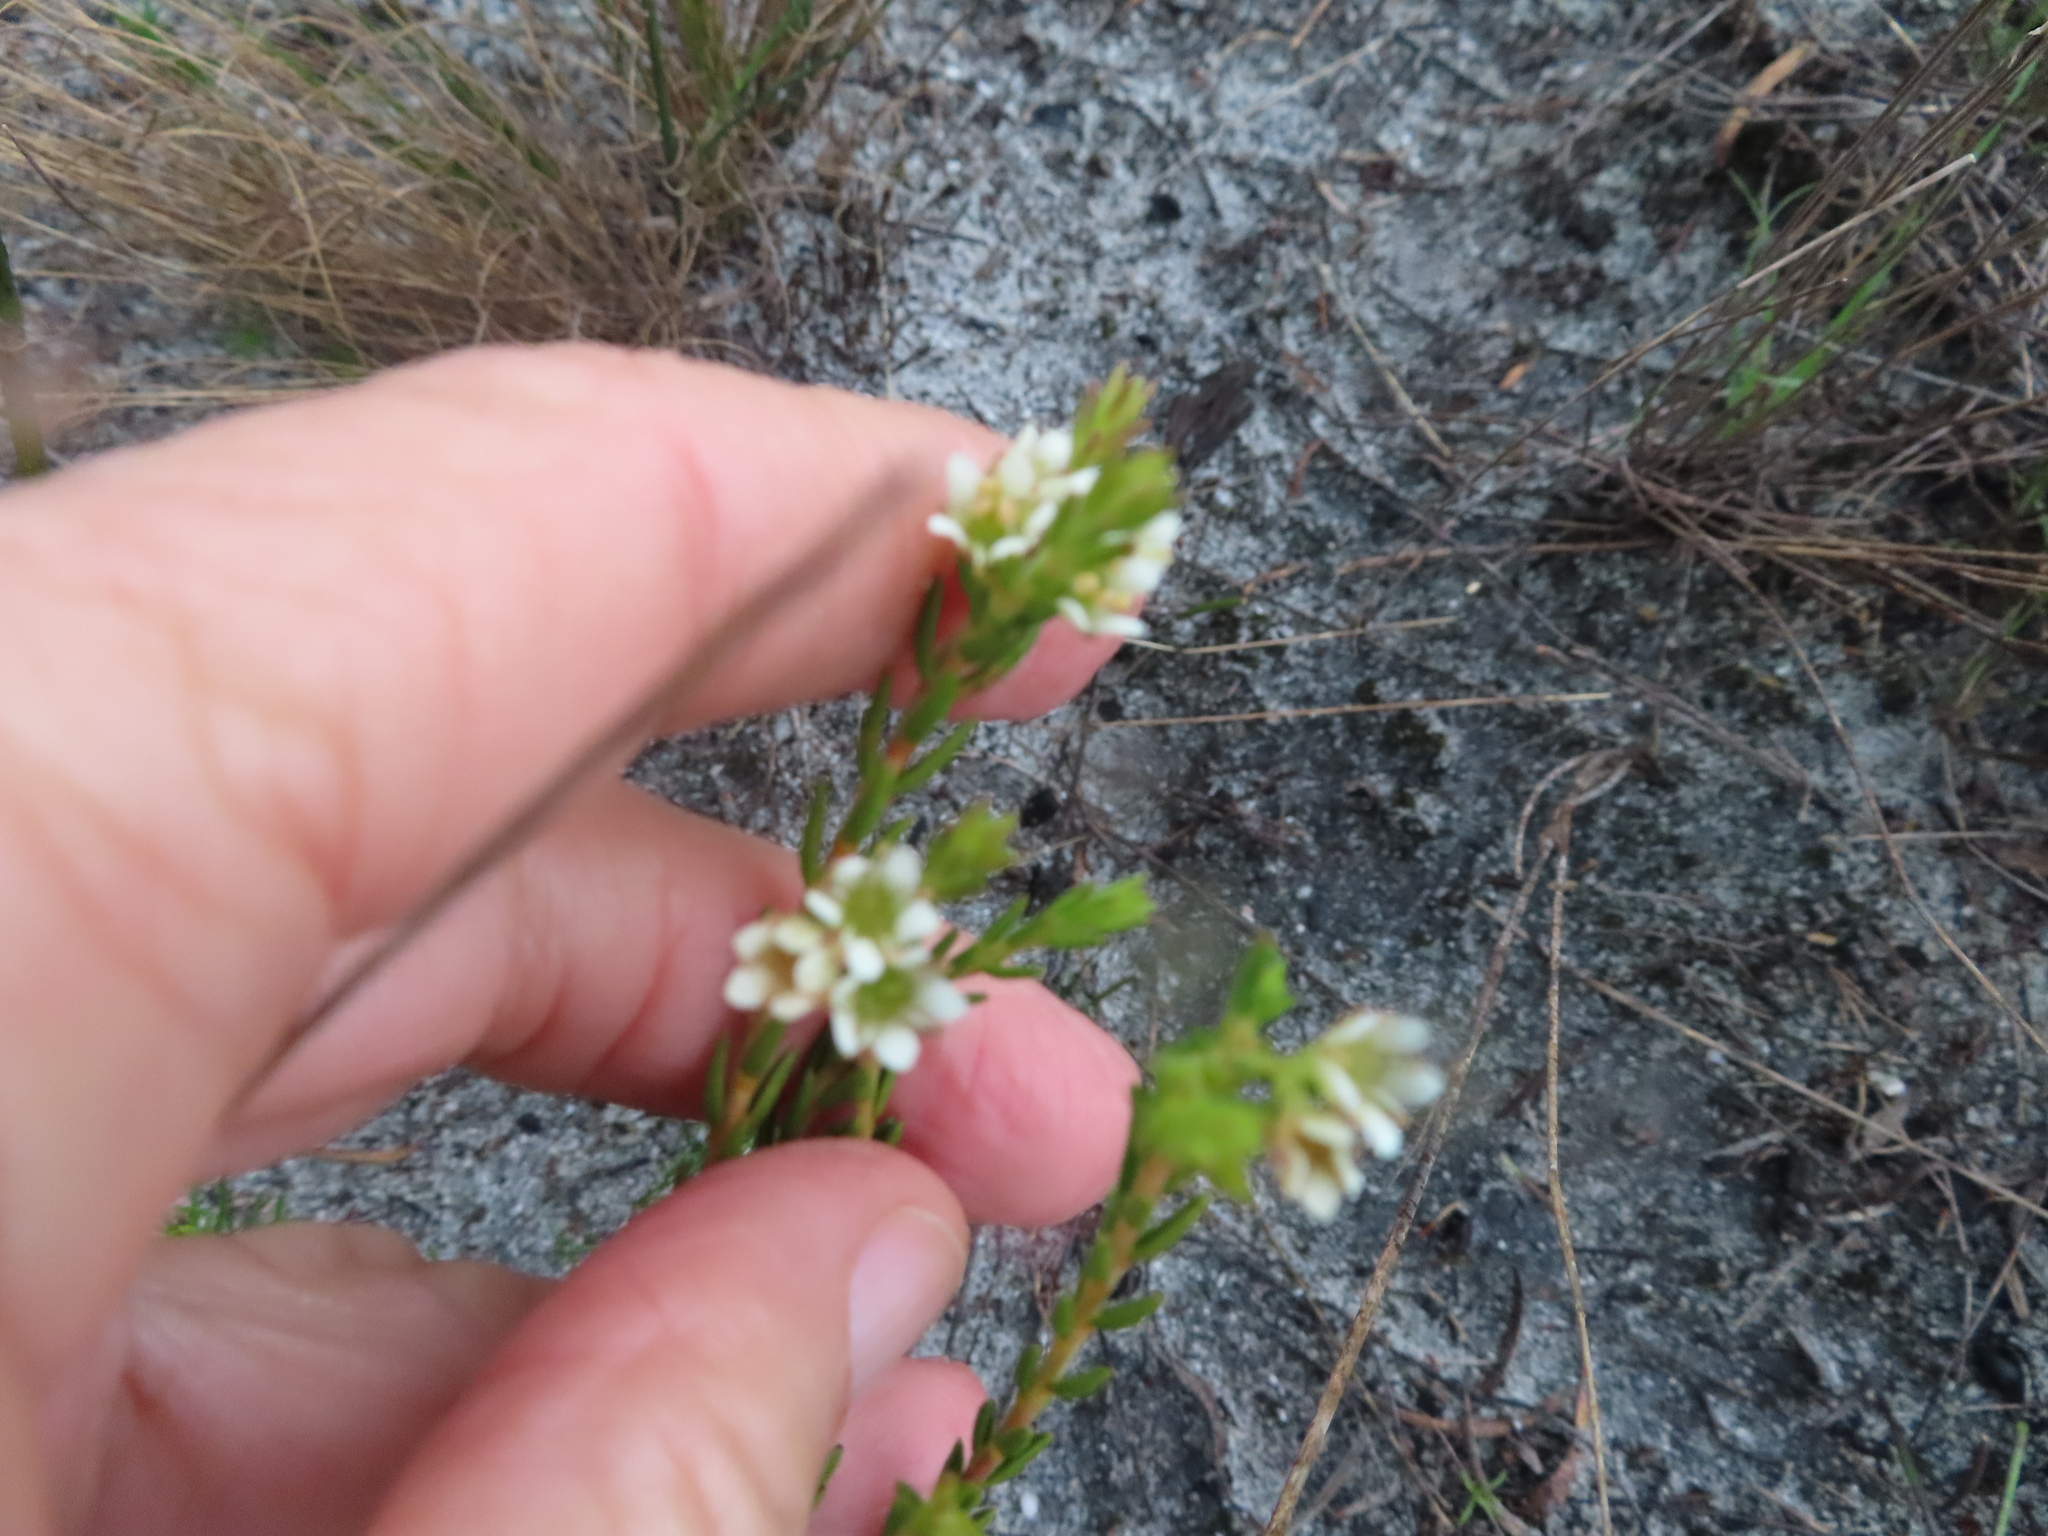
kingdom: Plantae
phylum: Tracheophyta
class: Magnoliopsida
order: Sapindales
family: Rutaceae
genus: Diosma
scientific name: Diosma oppositifolia
